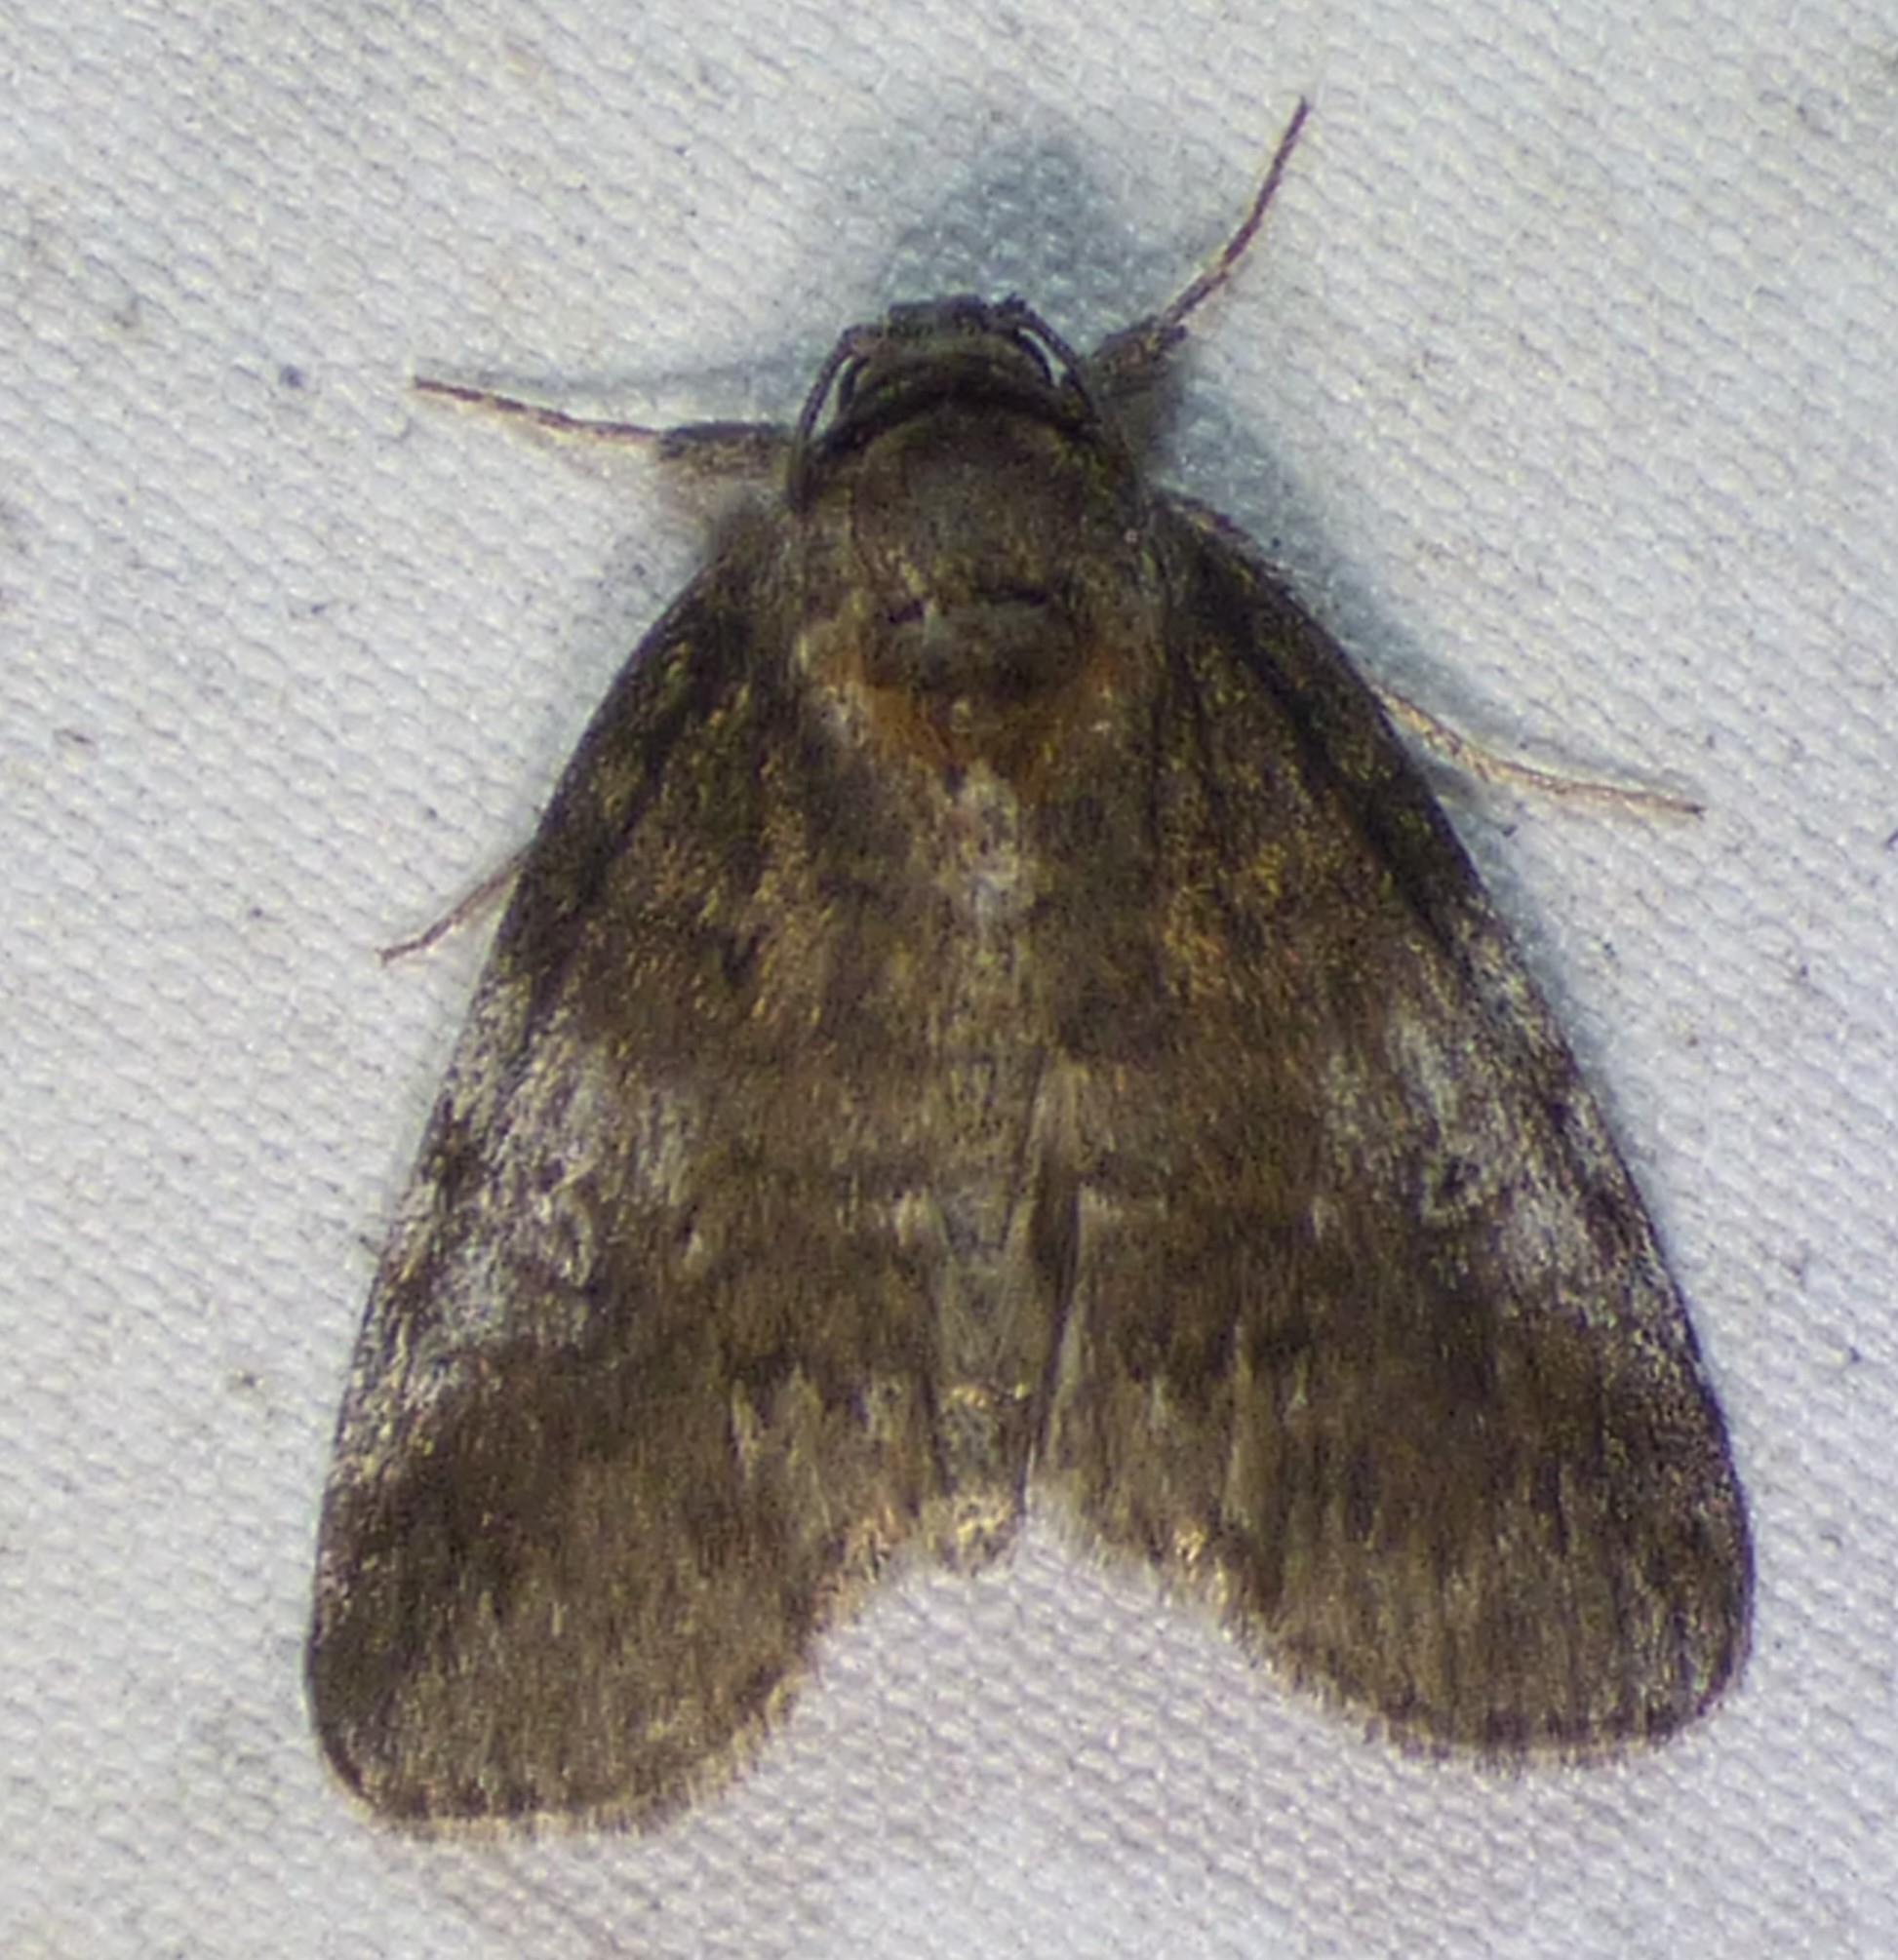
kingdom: Animalia
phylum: Arthropoda
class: Insecta
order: Lepidoptera
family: Nolidae
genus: Baileya
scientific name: Baileya levitans
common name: Pale baileya
